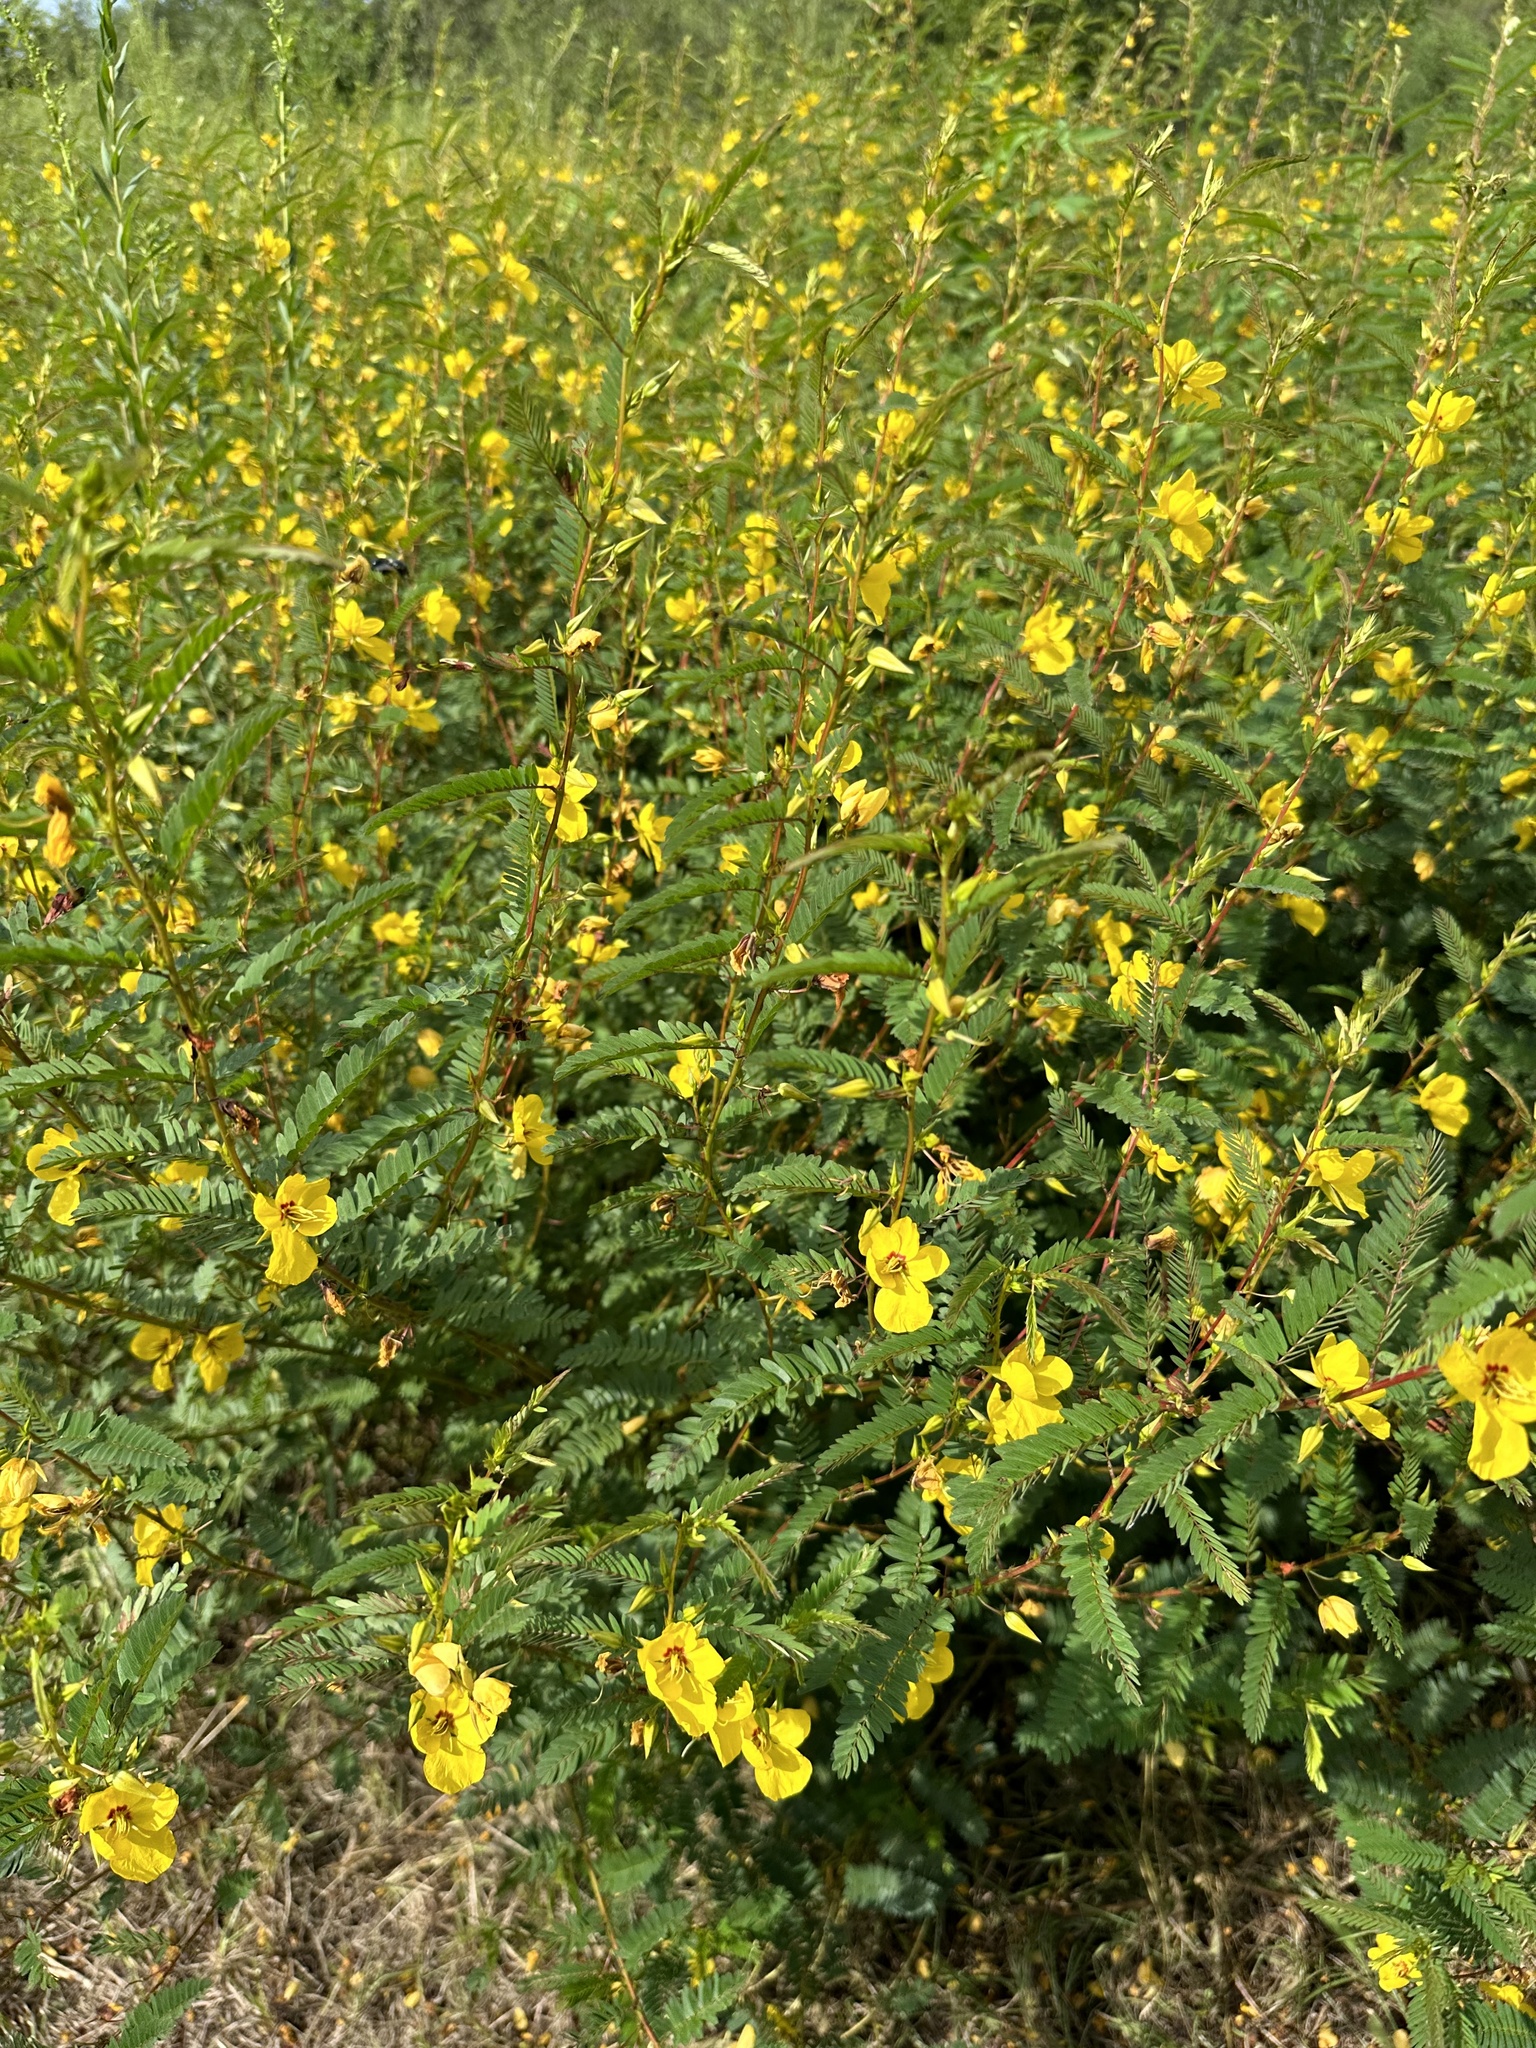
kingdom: Plantae
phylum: Tracheophyta
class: Magnoliopsida
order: Fabales
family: Fabaceae
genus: Chamaecrista
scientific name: Chamaecrista fasciculata
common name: Golden cassia
